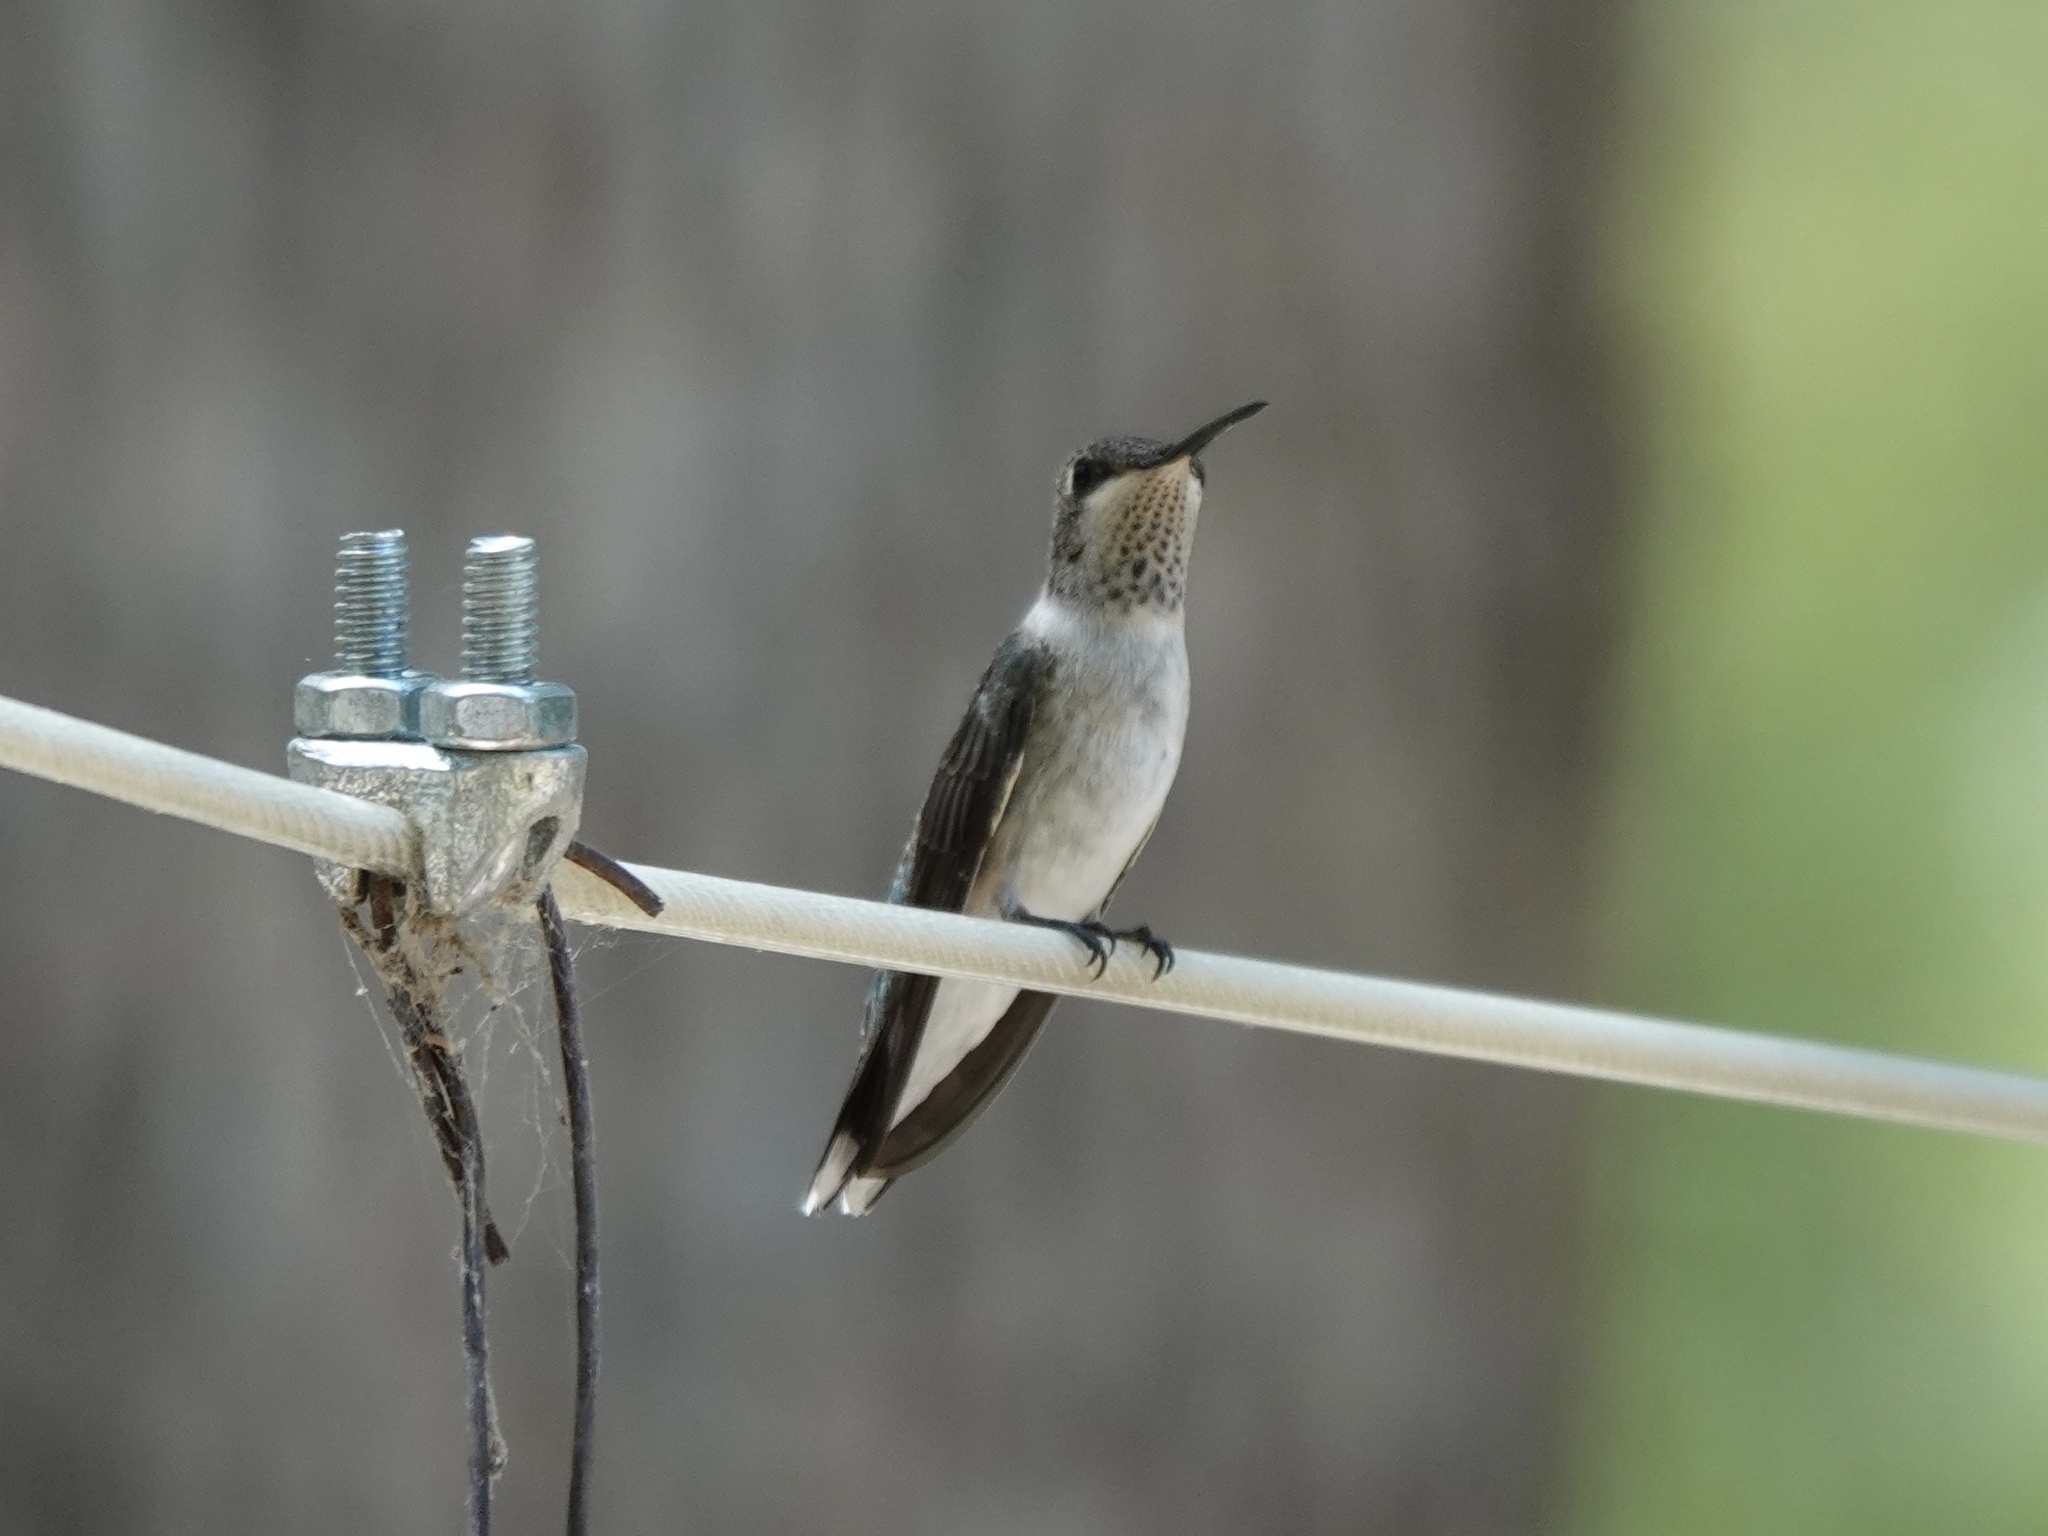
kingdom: Animalia
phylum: Chordata
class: Aves
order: Apodiformes
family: Trochilidae
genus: Archilochus
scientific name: Archilochus alexandri
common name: Black-chinned hummingbird
